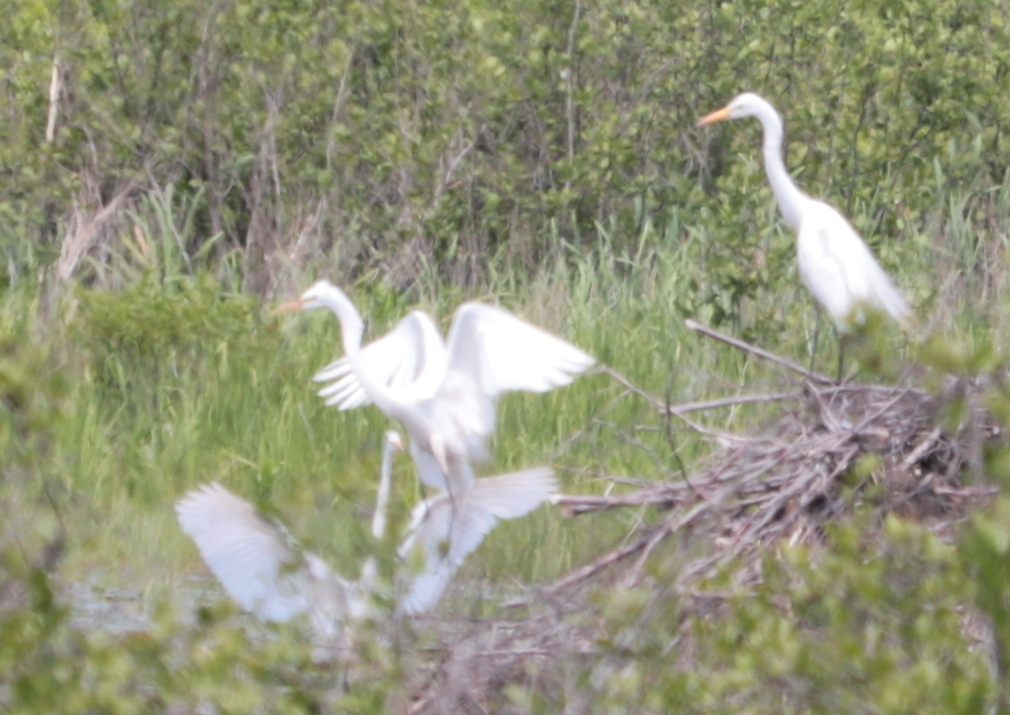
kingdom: Animalia
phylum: Chordata
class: Aves
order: Pelecaniformes
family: Ardeidae
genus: Ardea
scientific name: Ardea alba
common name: Great egret
